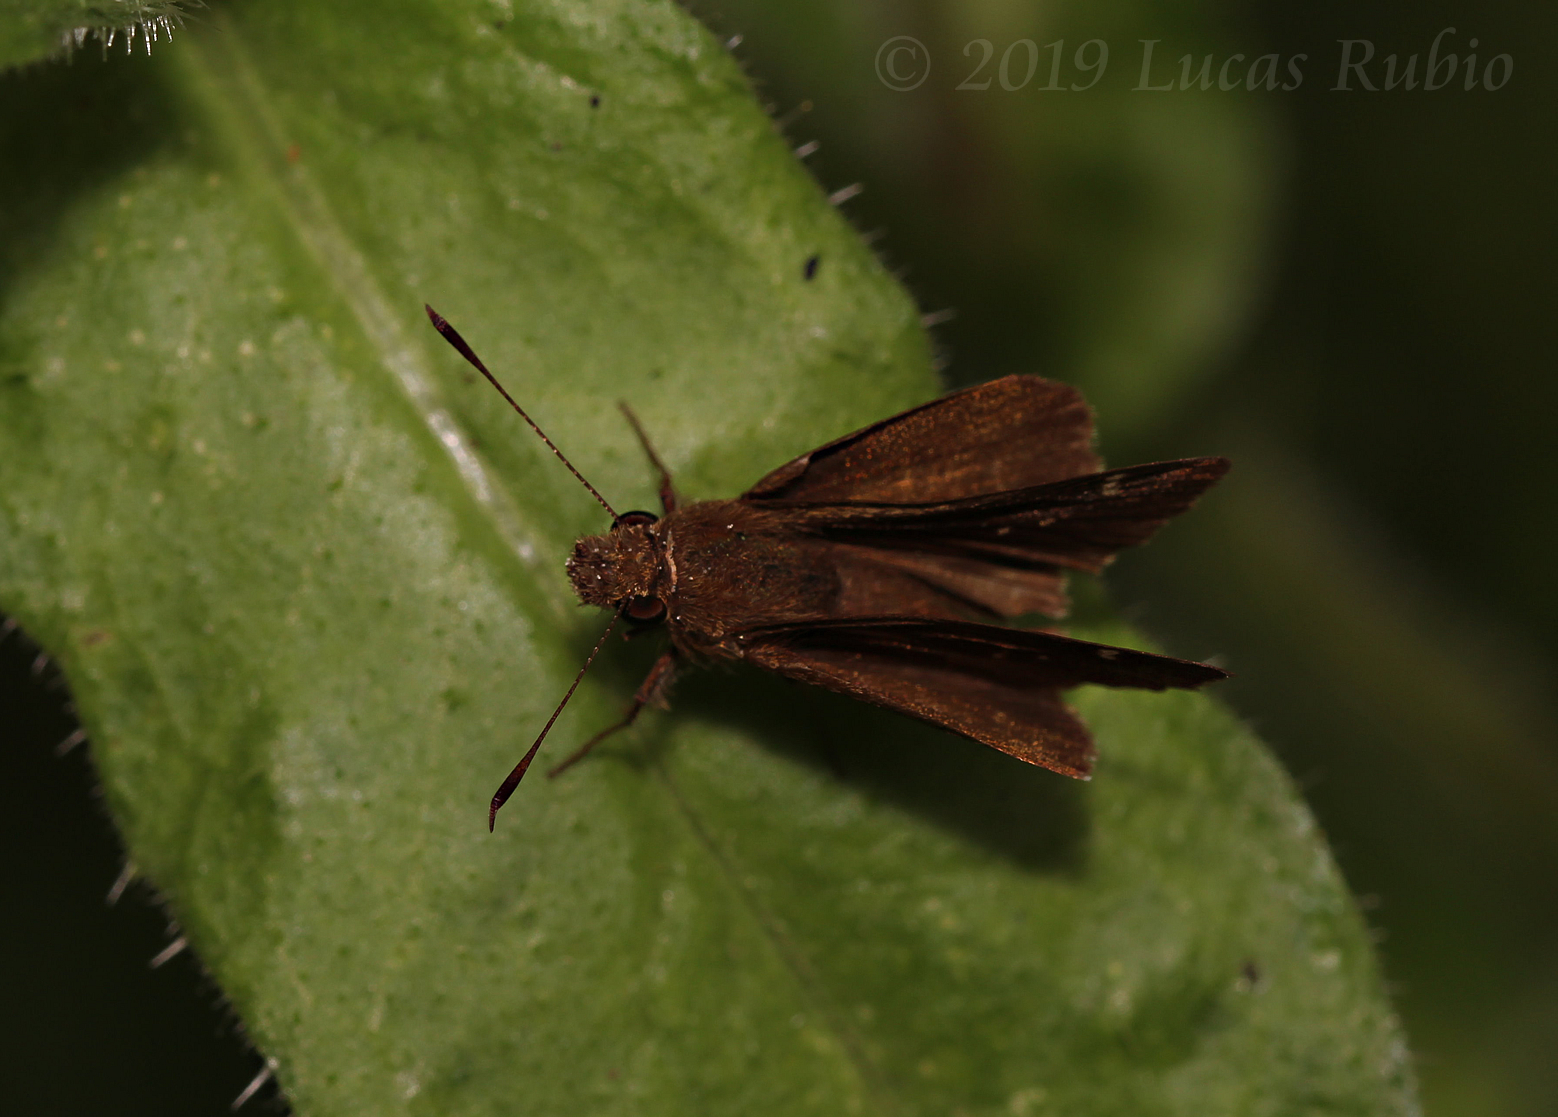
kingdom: Animalia
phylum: Arthropoda
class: Insecta
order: Lepidoptera
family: Hesperiidae
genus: Cymaenes
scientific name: Cymaenes
